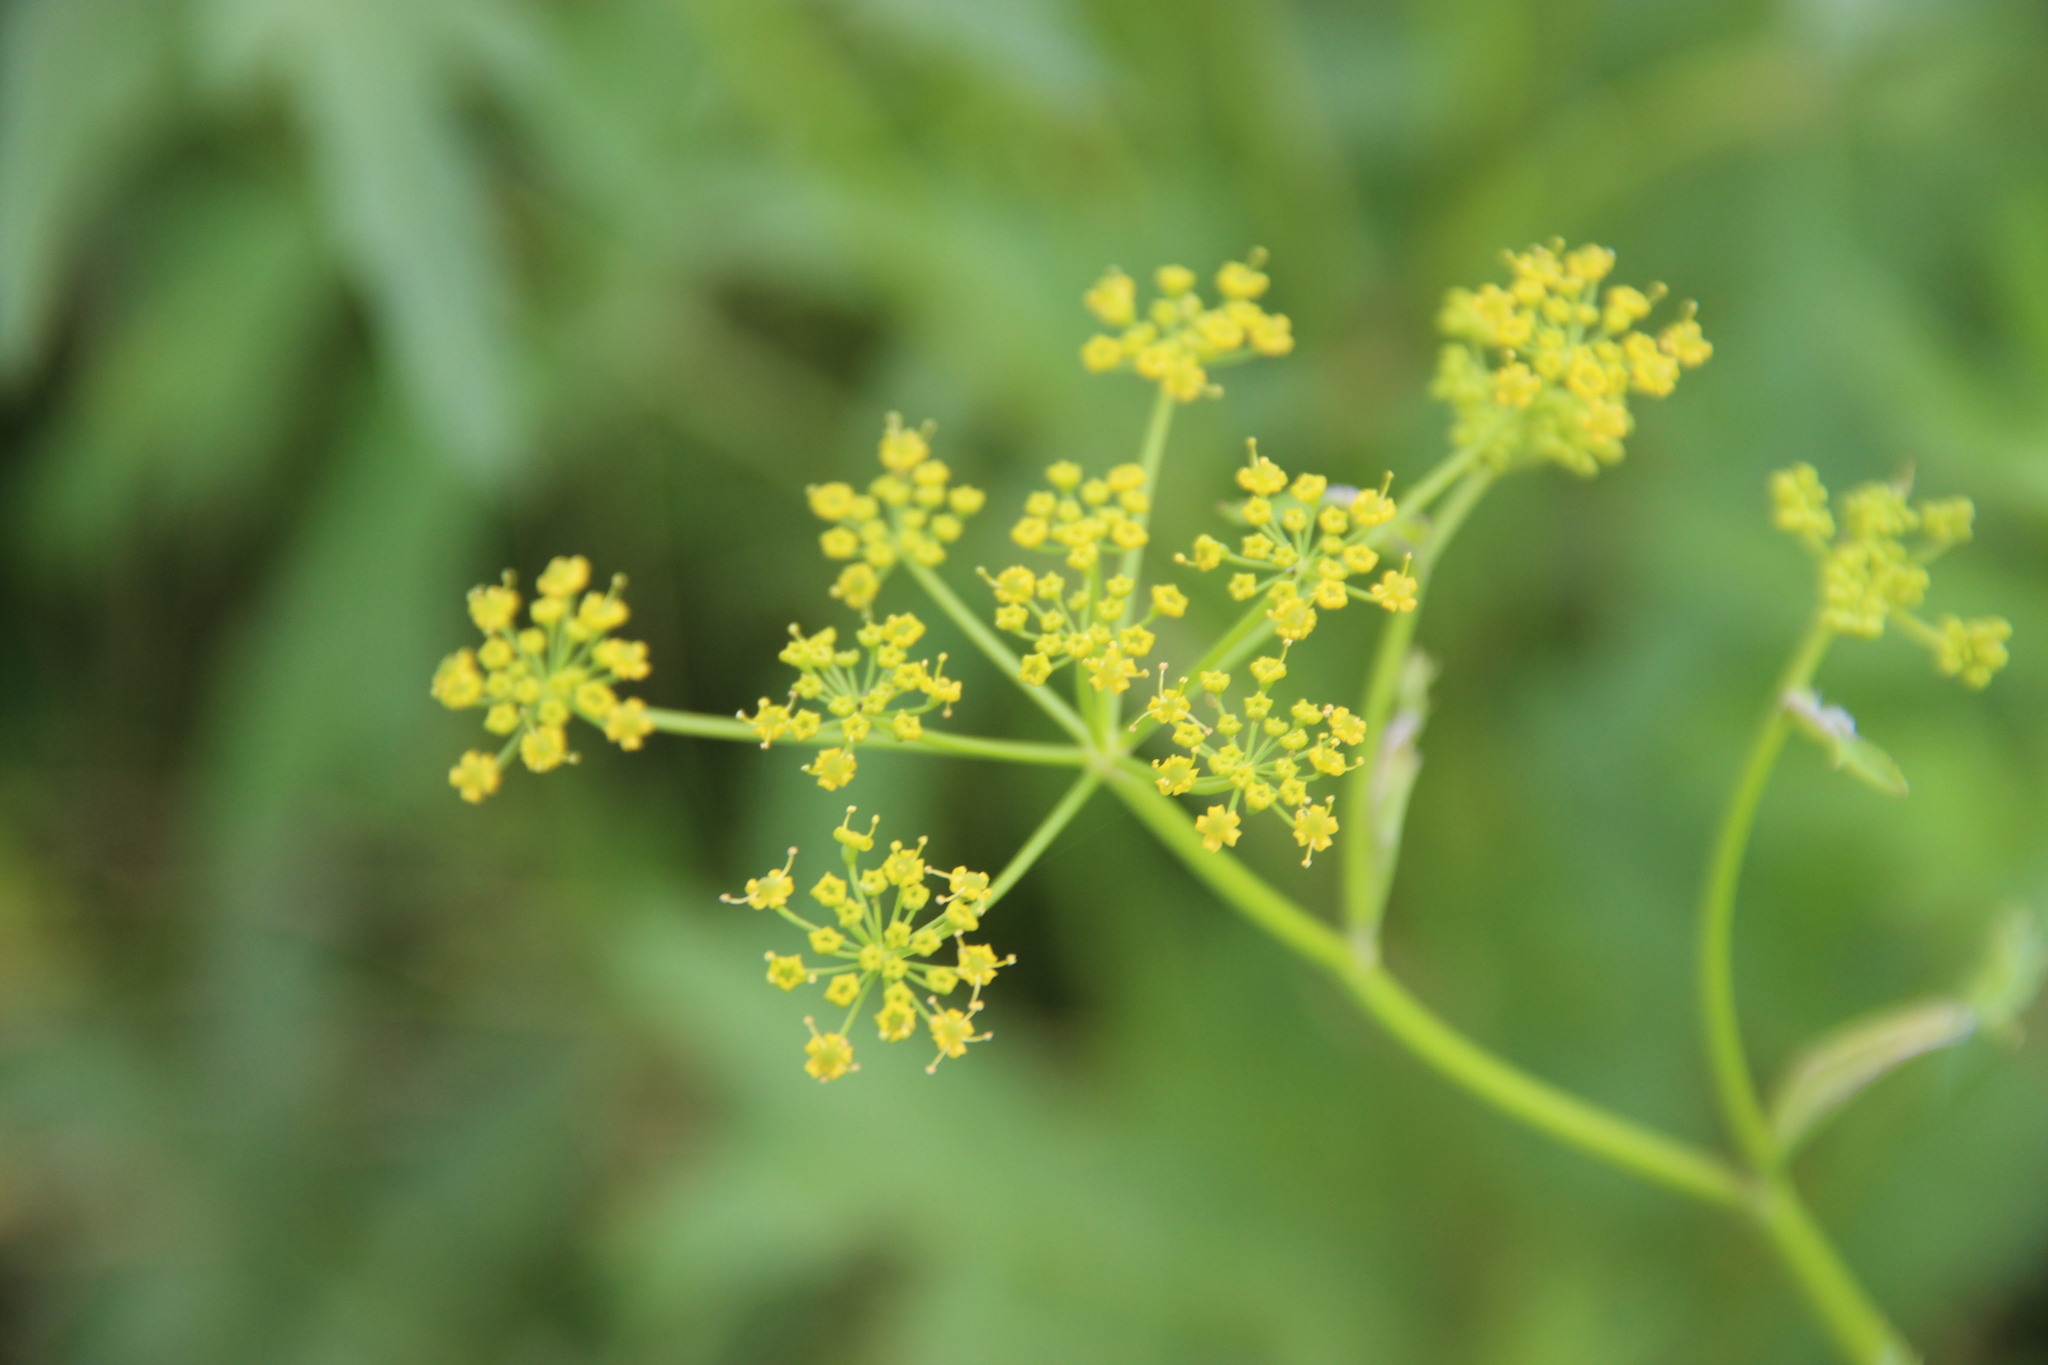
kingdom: Plantae
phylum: Tracheophyta
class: Magnoliopsida
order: Apiales
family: Apiaceae
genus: Pastinaca
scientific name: Pastinaca sativa
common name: Wild parsnip
